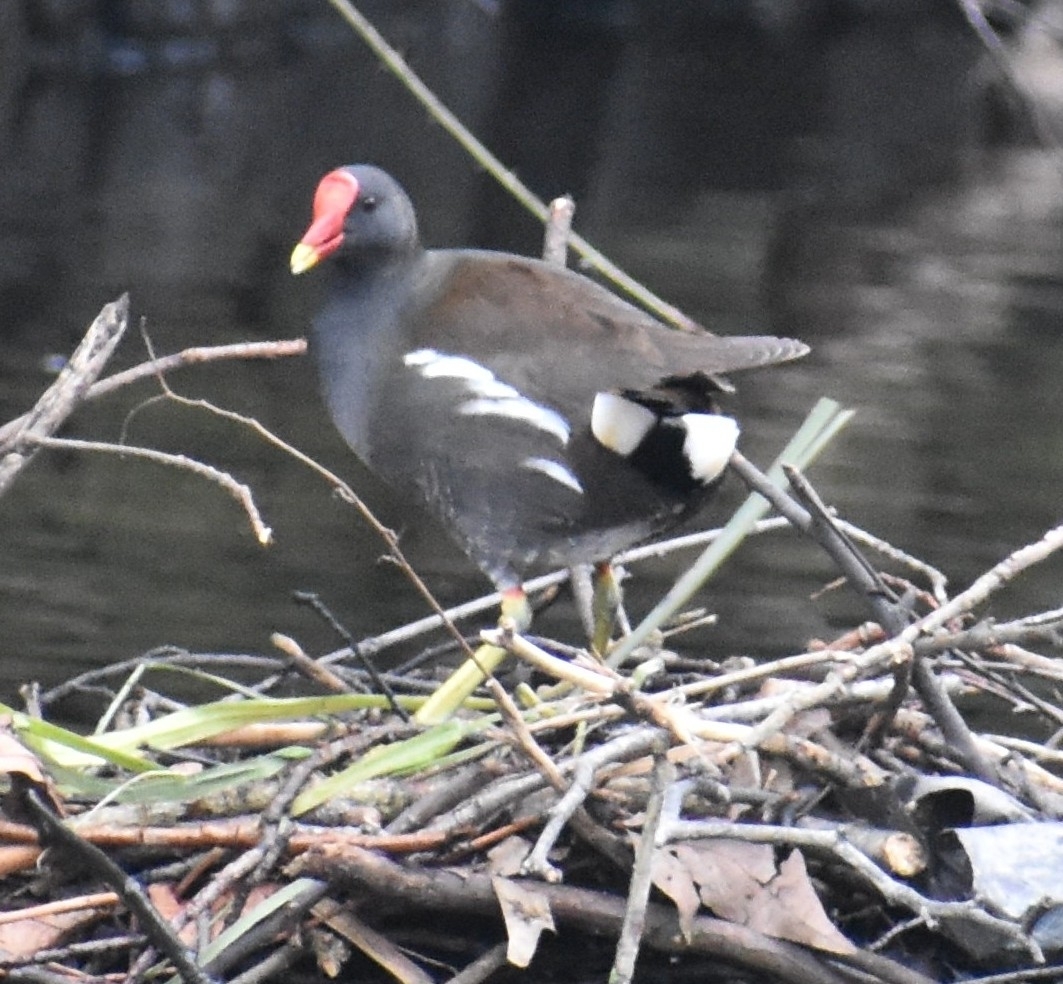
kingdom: Animalia
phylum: Chordata
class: Aves
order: Gruiformes
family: Rallidae
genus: Gallinula
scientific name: Gallinula chloropus
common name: Common moorhen
